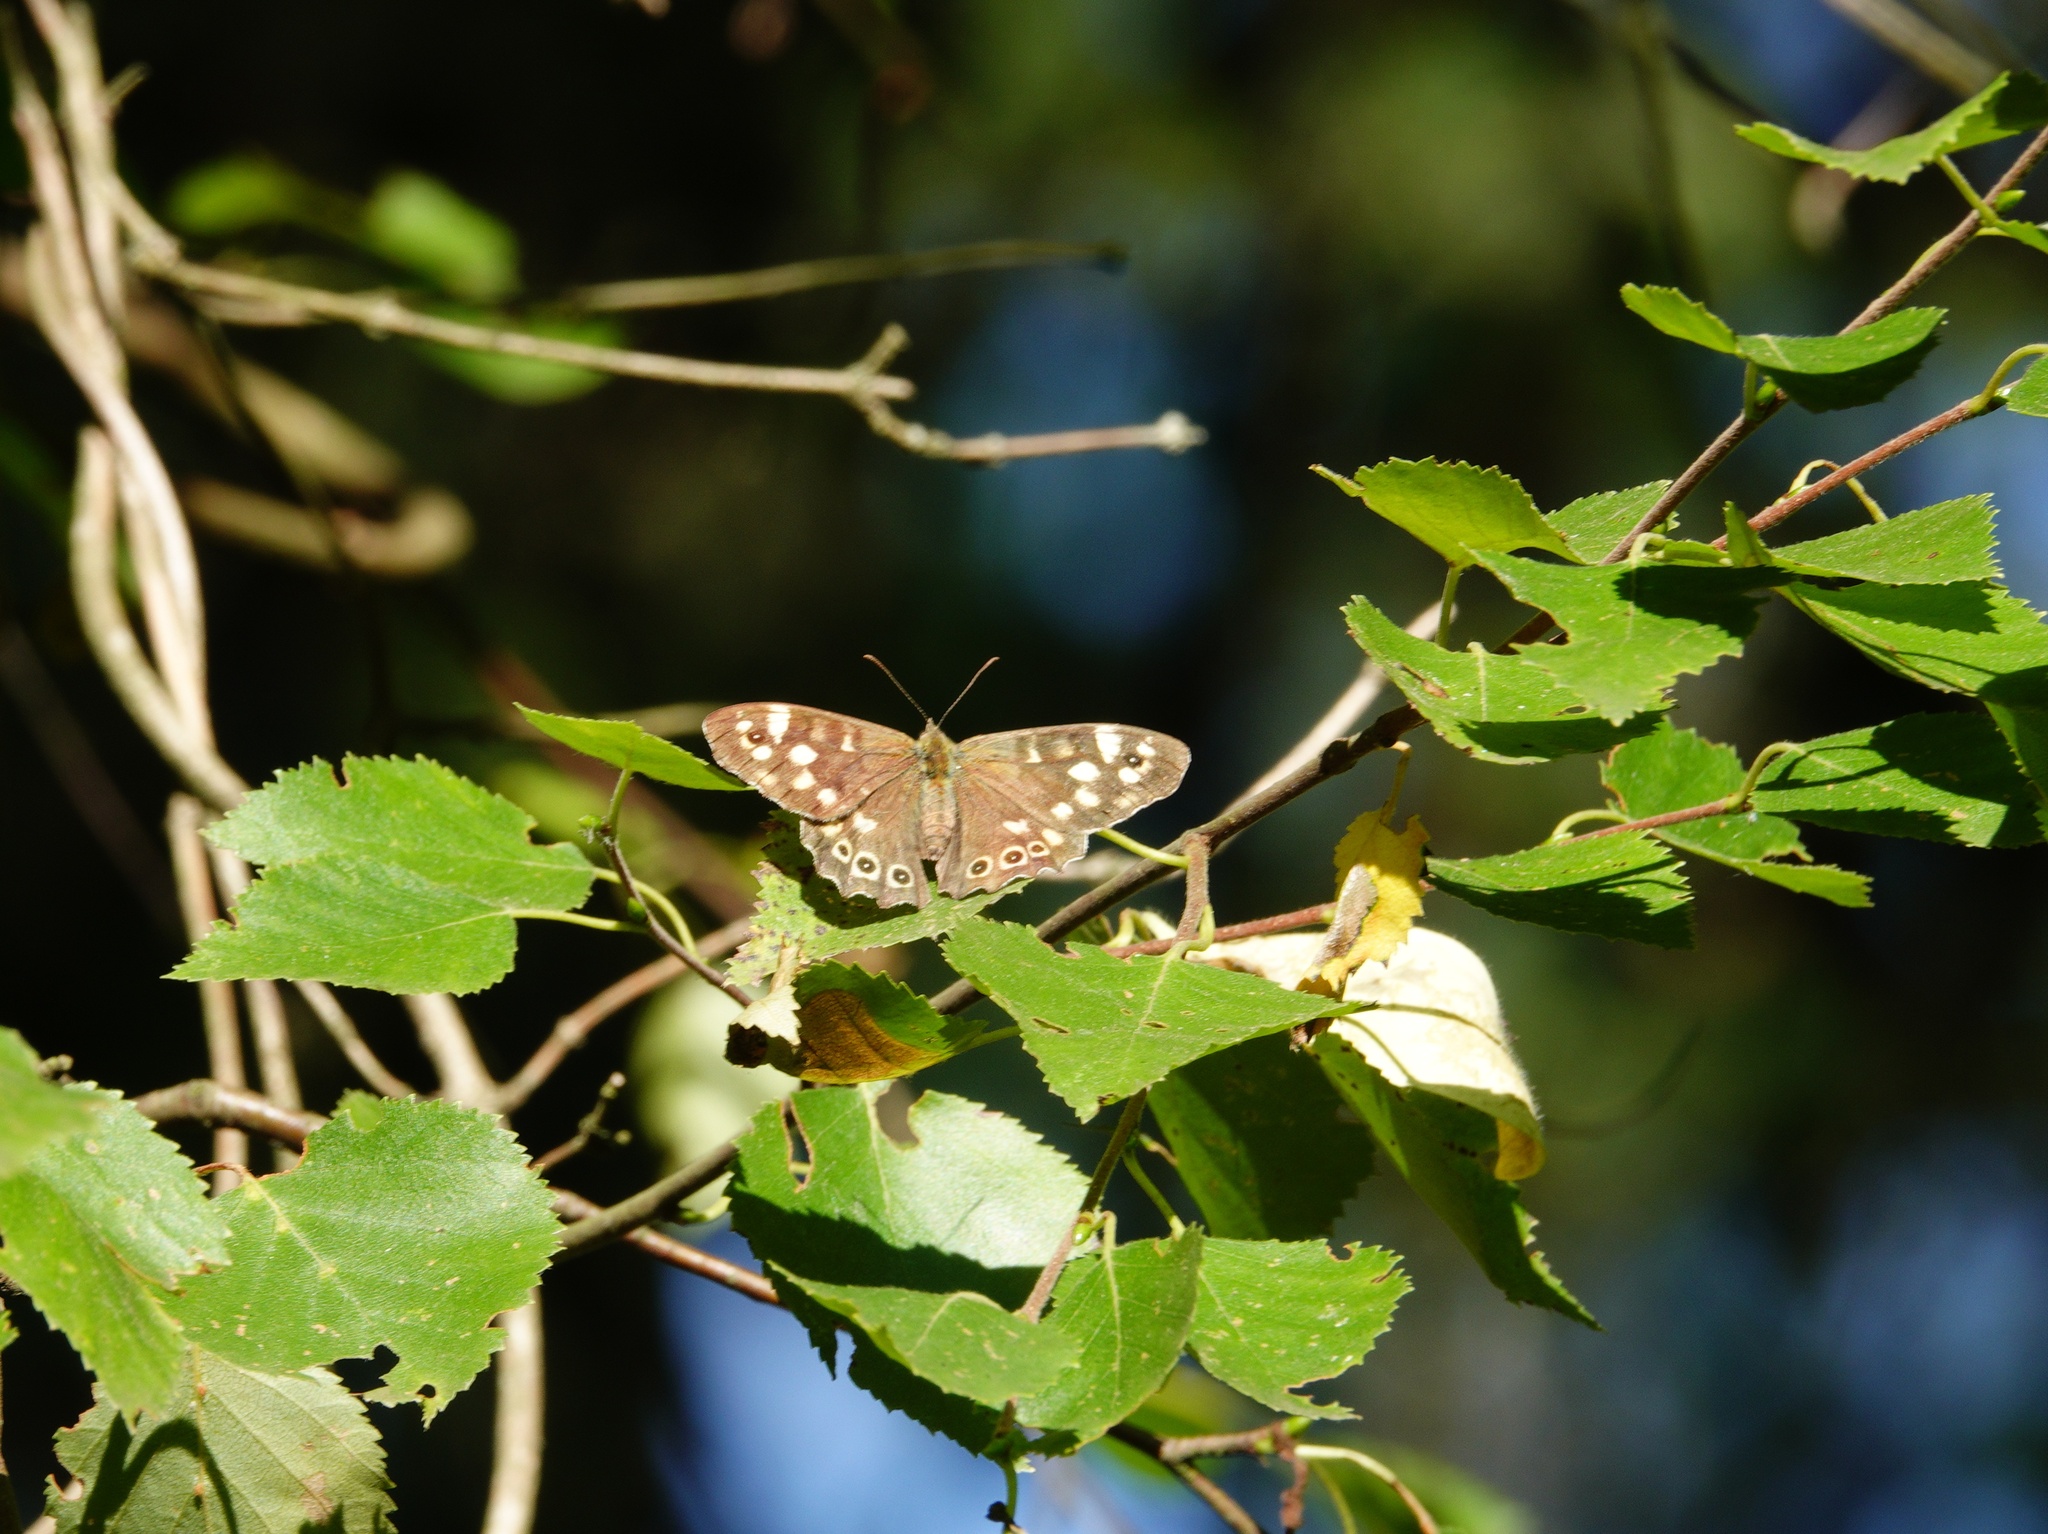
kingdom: Animalia
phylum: Arthropoda
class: Insecta
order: Lepidoptera
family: Nymphalidae
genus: Pararge
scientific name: Pararge aegeria
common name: Speckled wood
